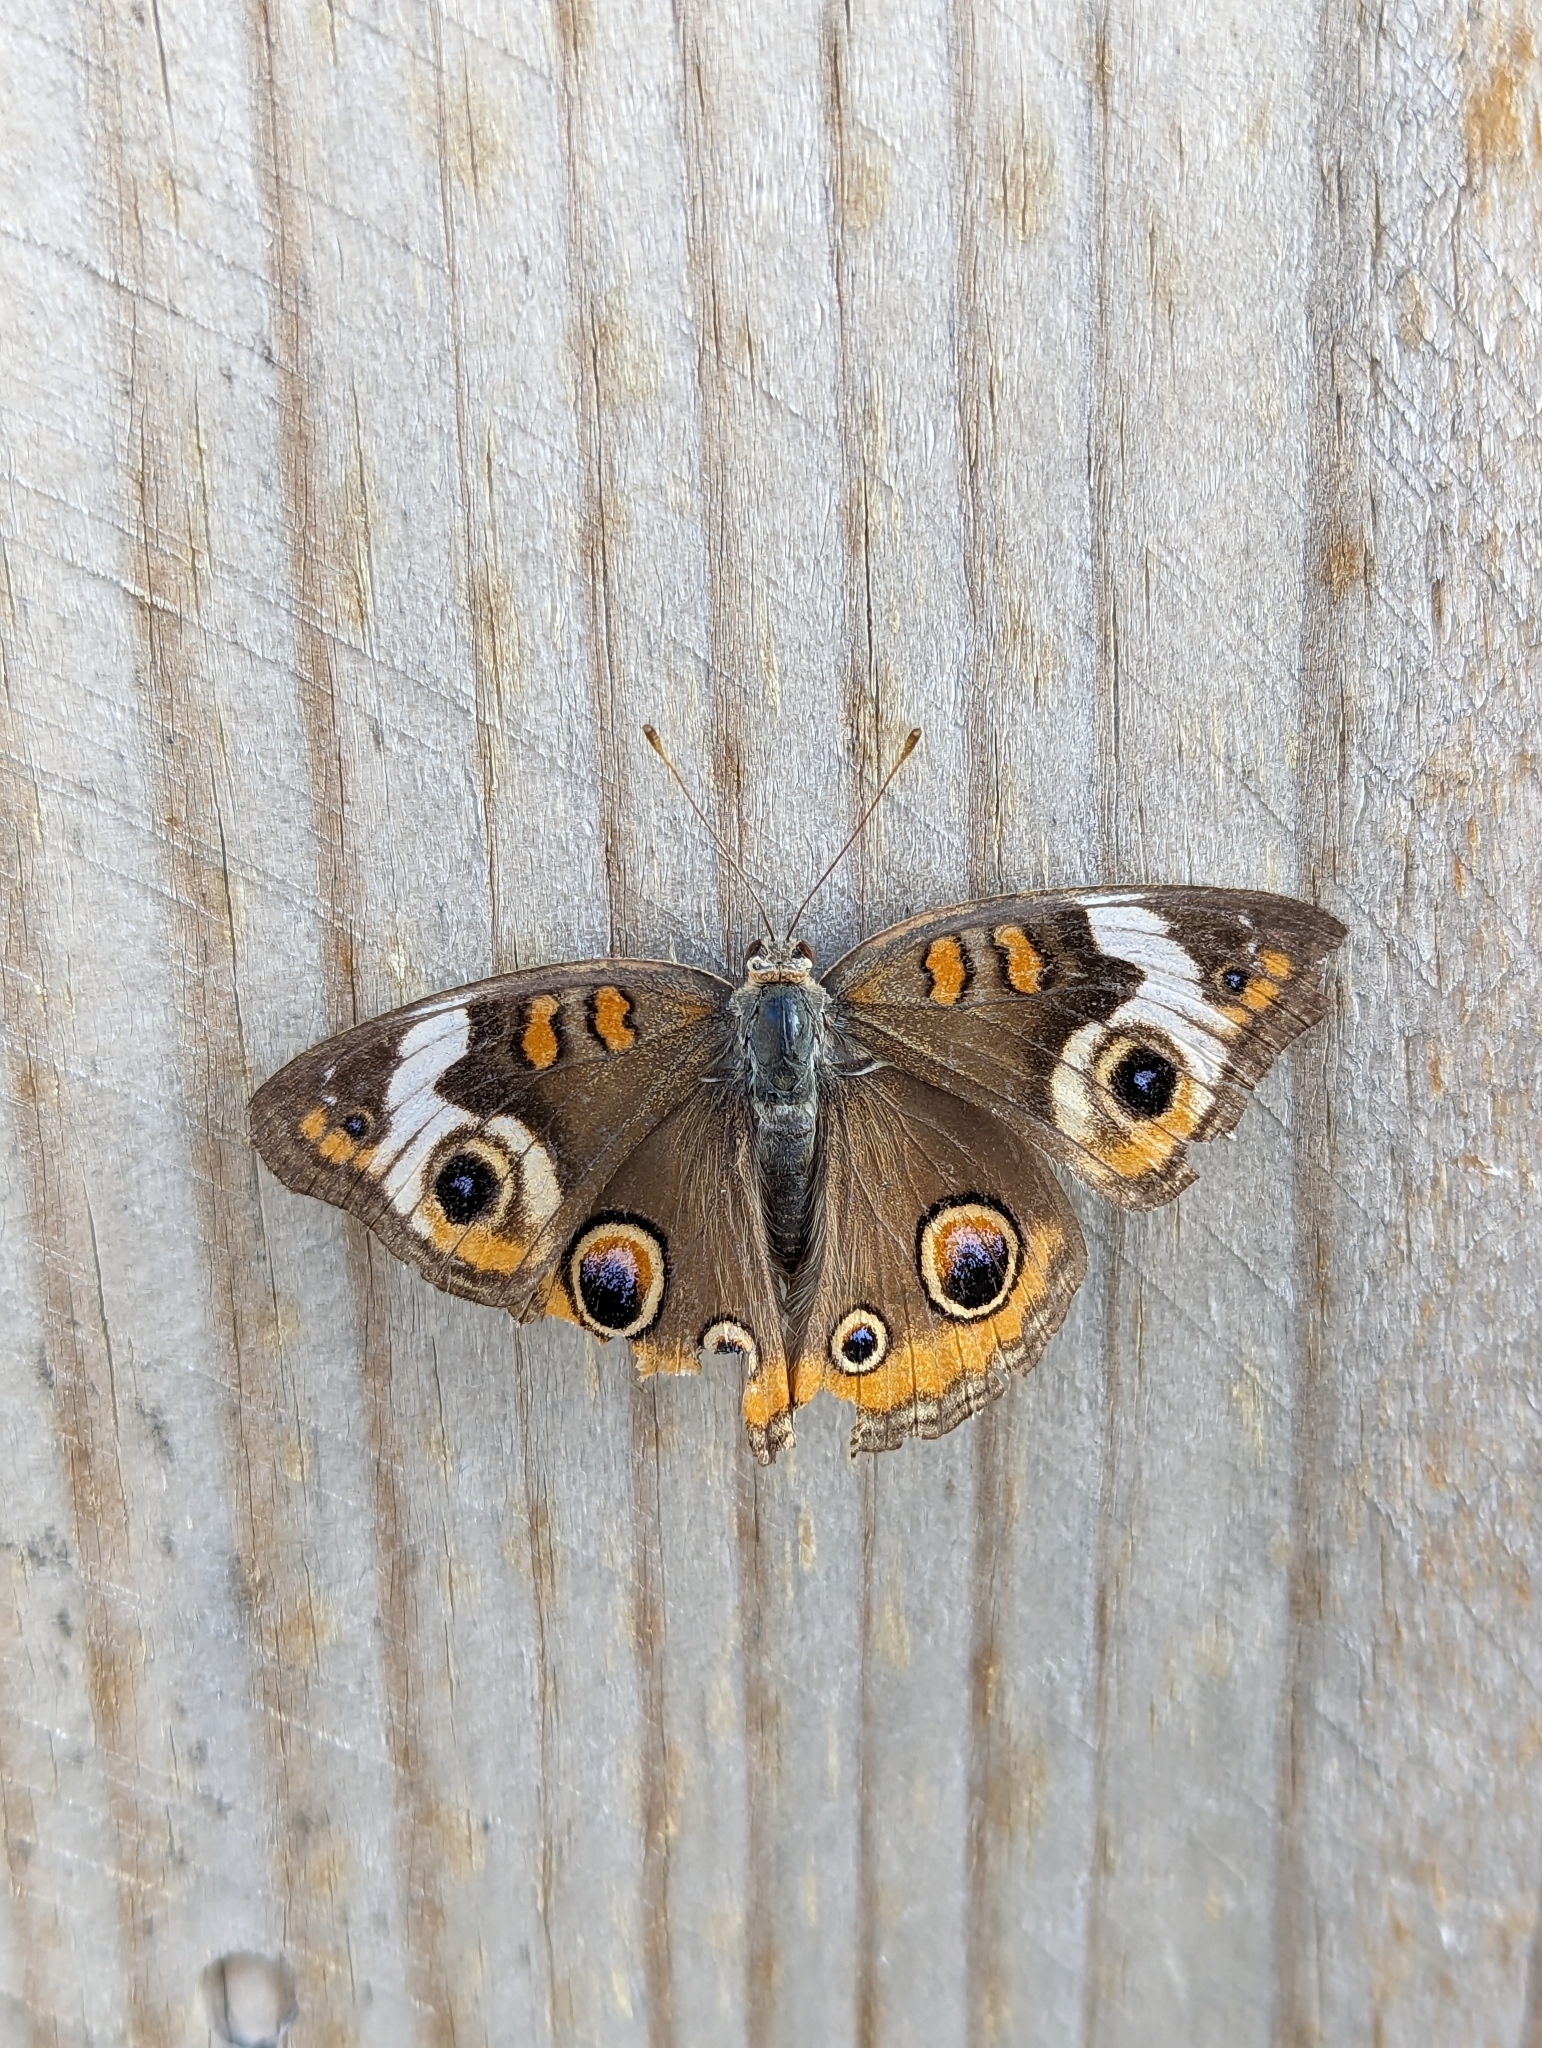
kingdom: Animalia
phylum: Arthropoda
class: Insecta
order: Lepidoptera
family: Nymphalidae
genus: Junonia
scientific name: Junonia coenia
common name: Common buckeye
